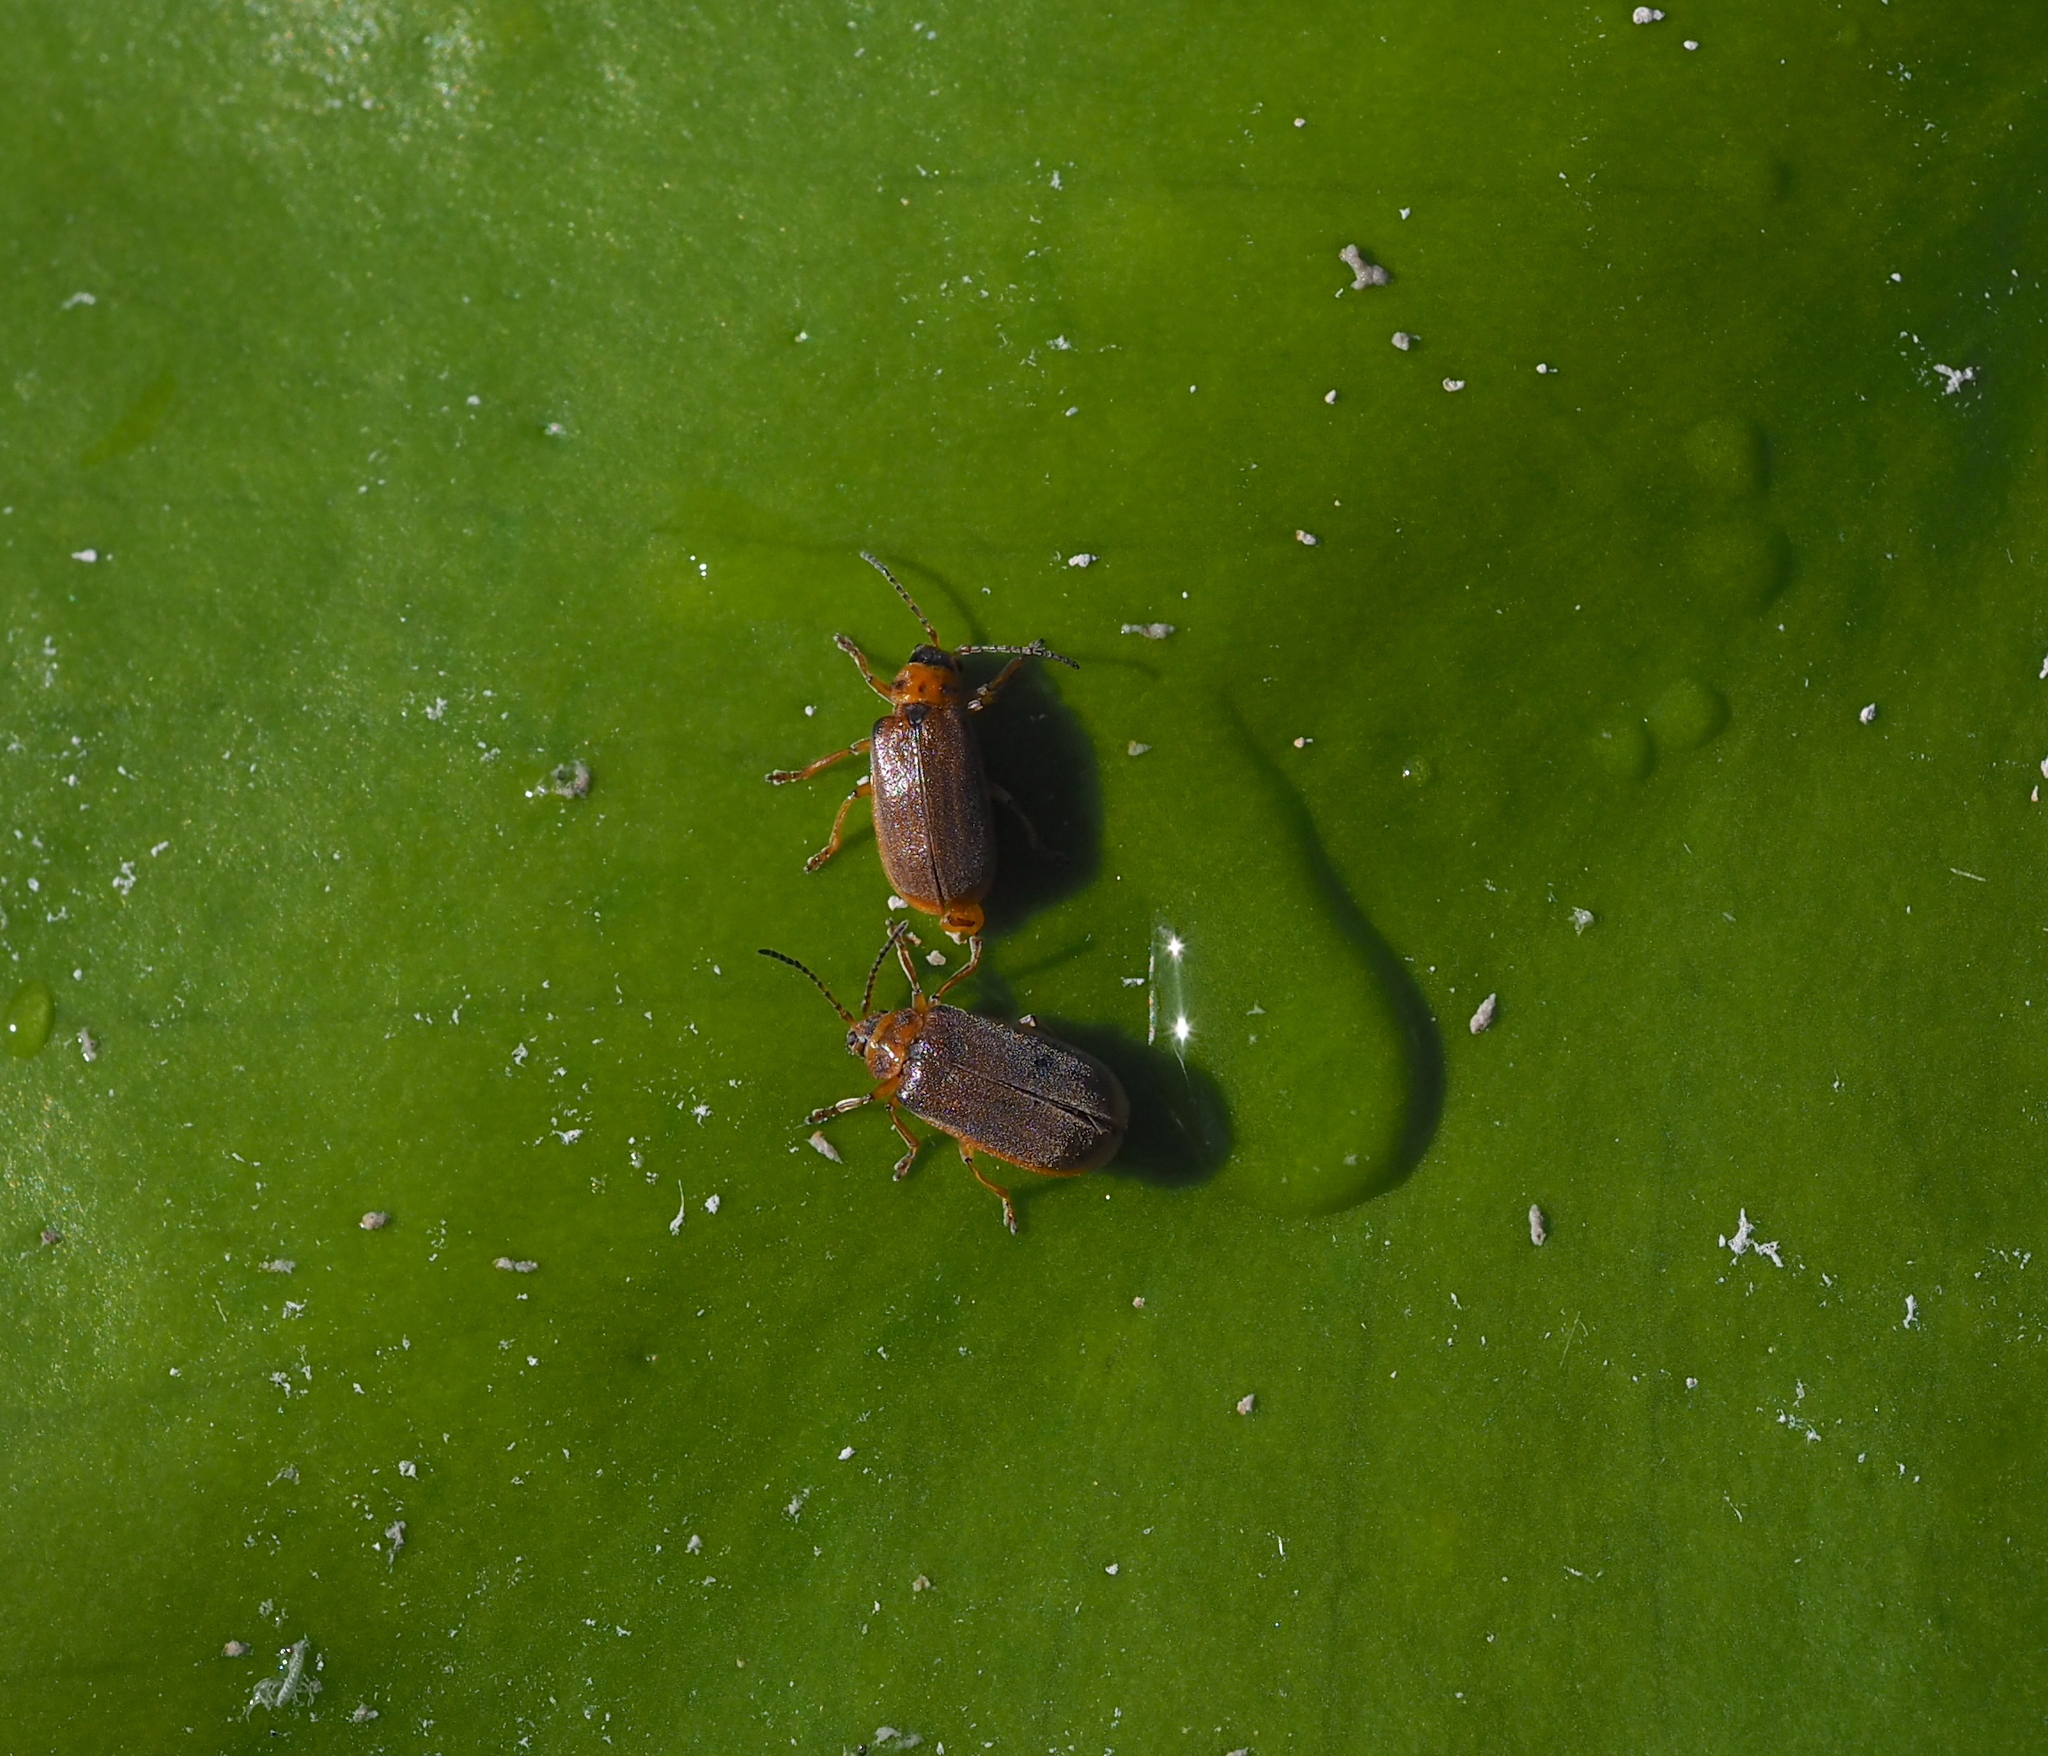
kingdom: Animalia
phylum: Arthropoda
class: Insecta
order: Coleoptera
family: Chrysomelidae
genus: Galerucella
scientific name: Galerucella nymphaeae
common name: Leaf beetle
